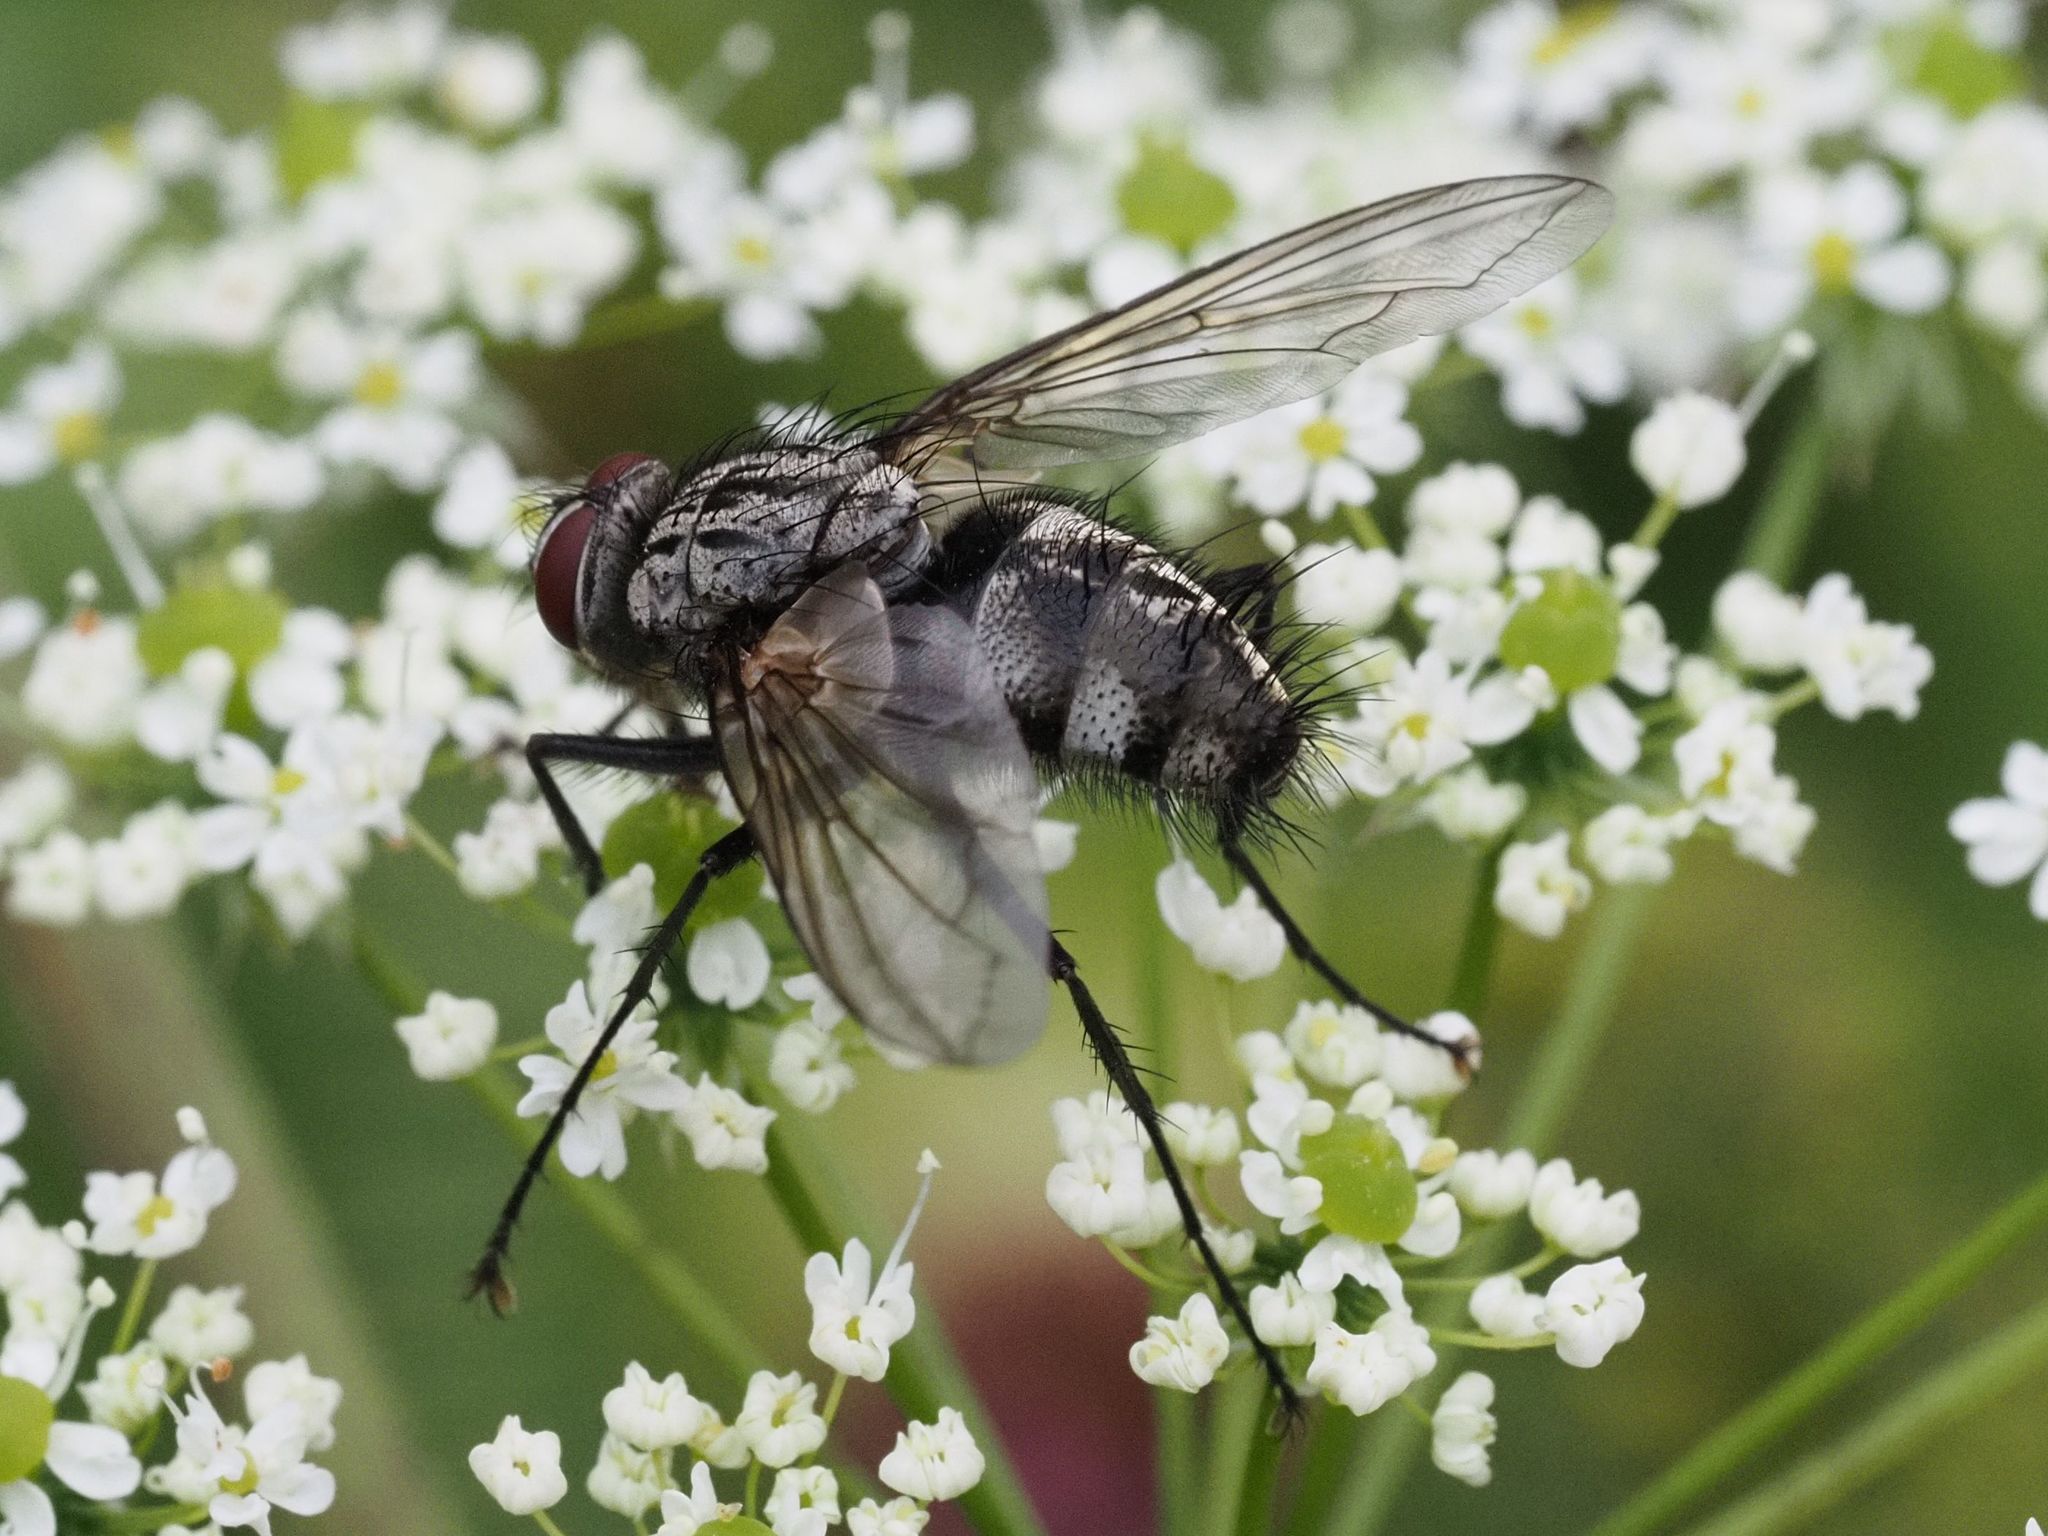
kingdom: Animalia
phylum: Arthropoda
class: Insecta
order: Diptera
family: Tachinidae
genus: Dinera
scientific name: Dinera ferina
